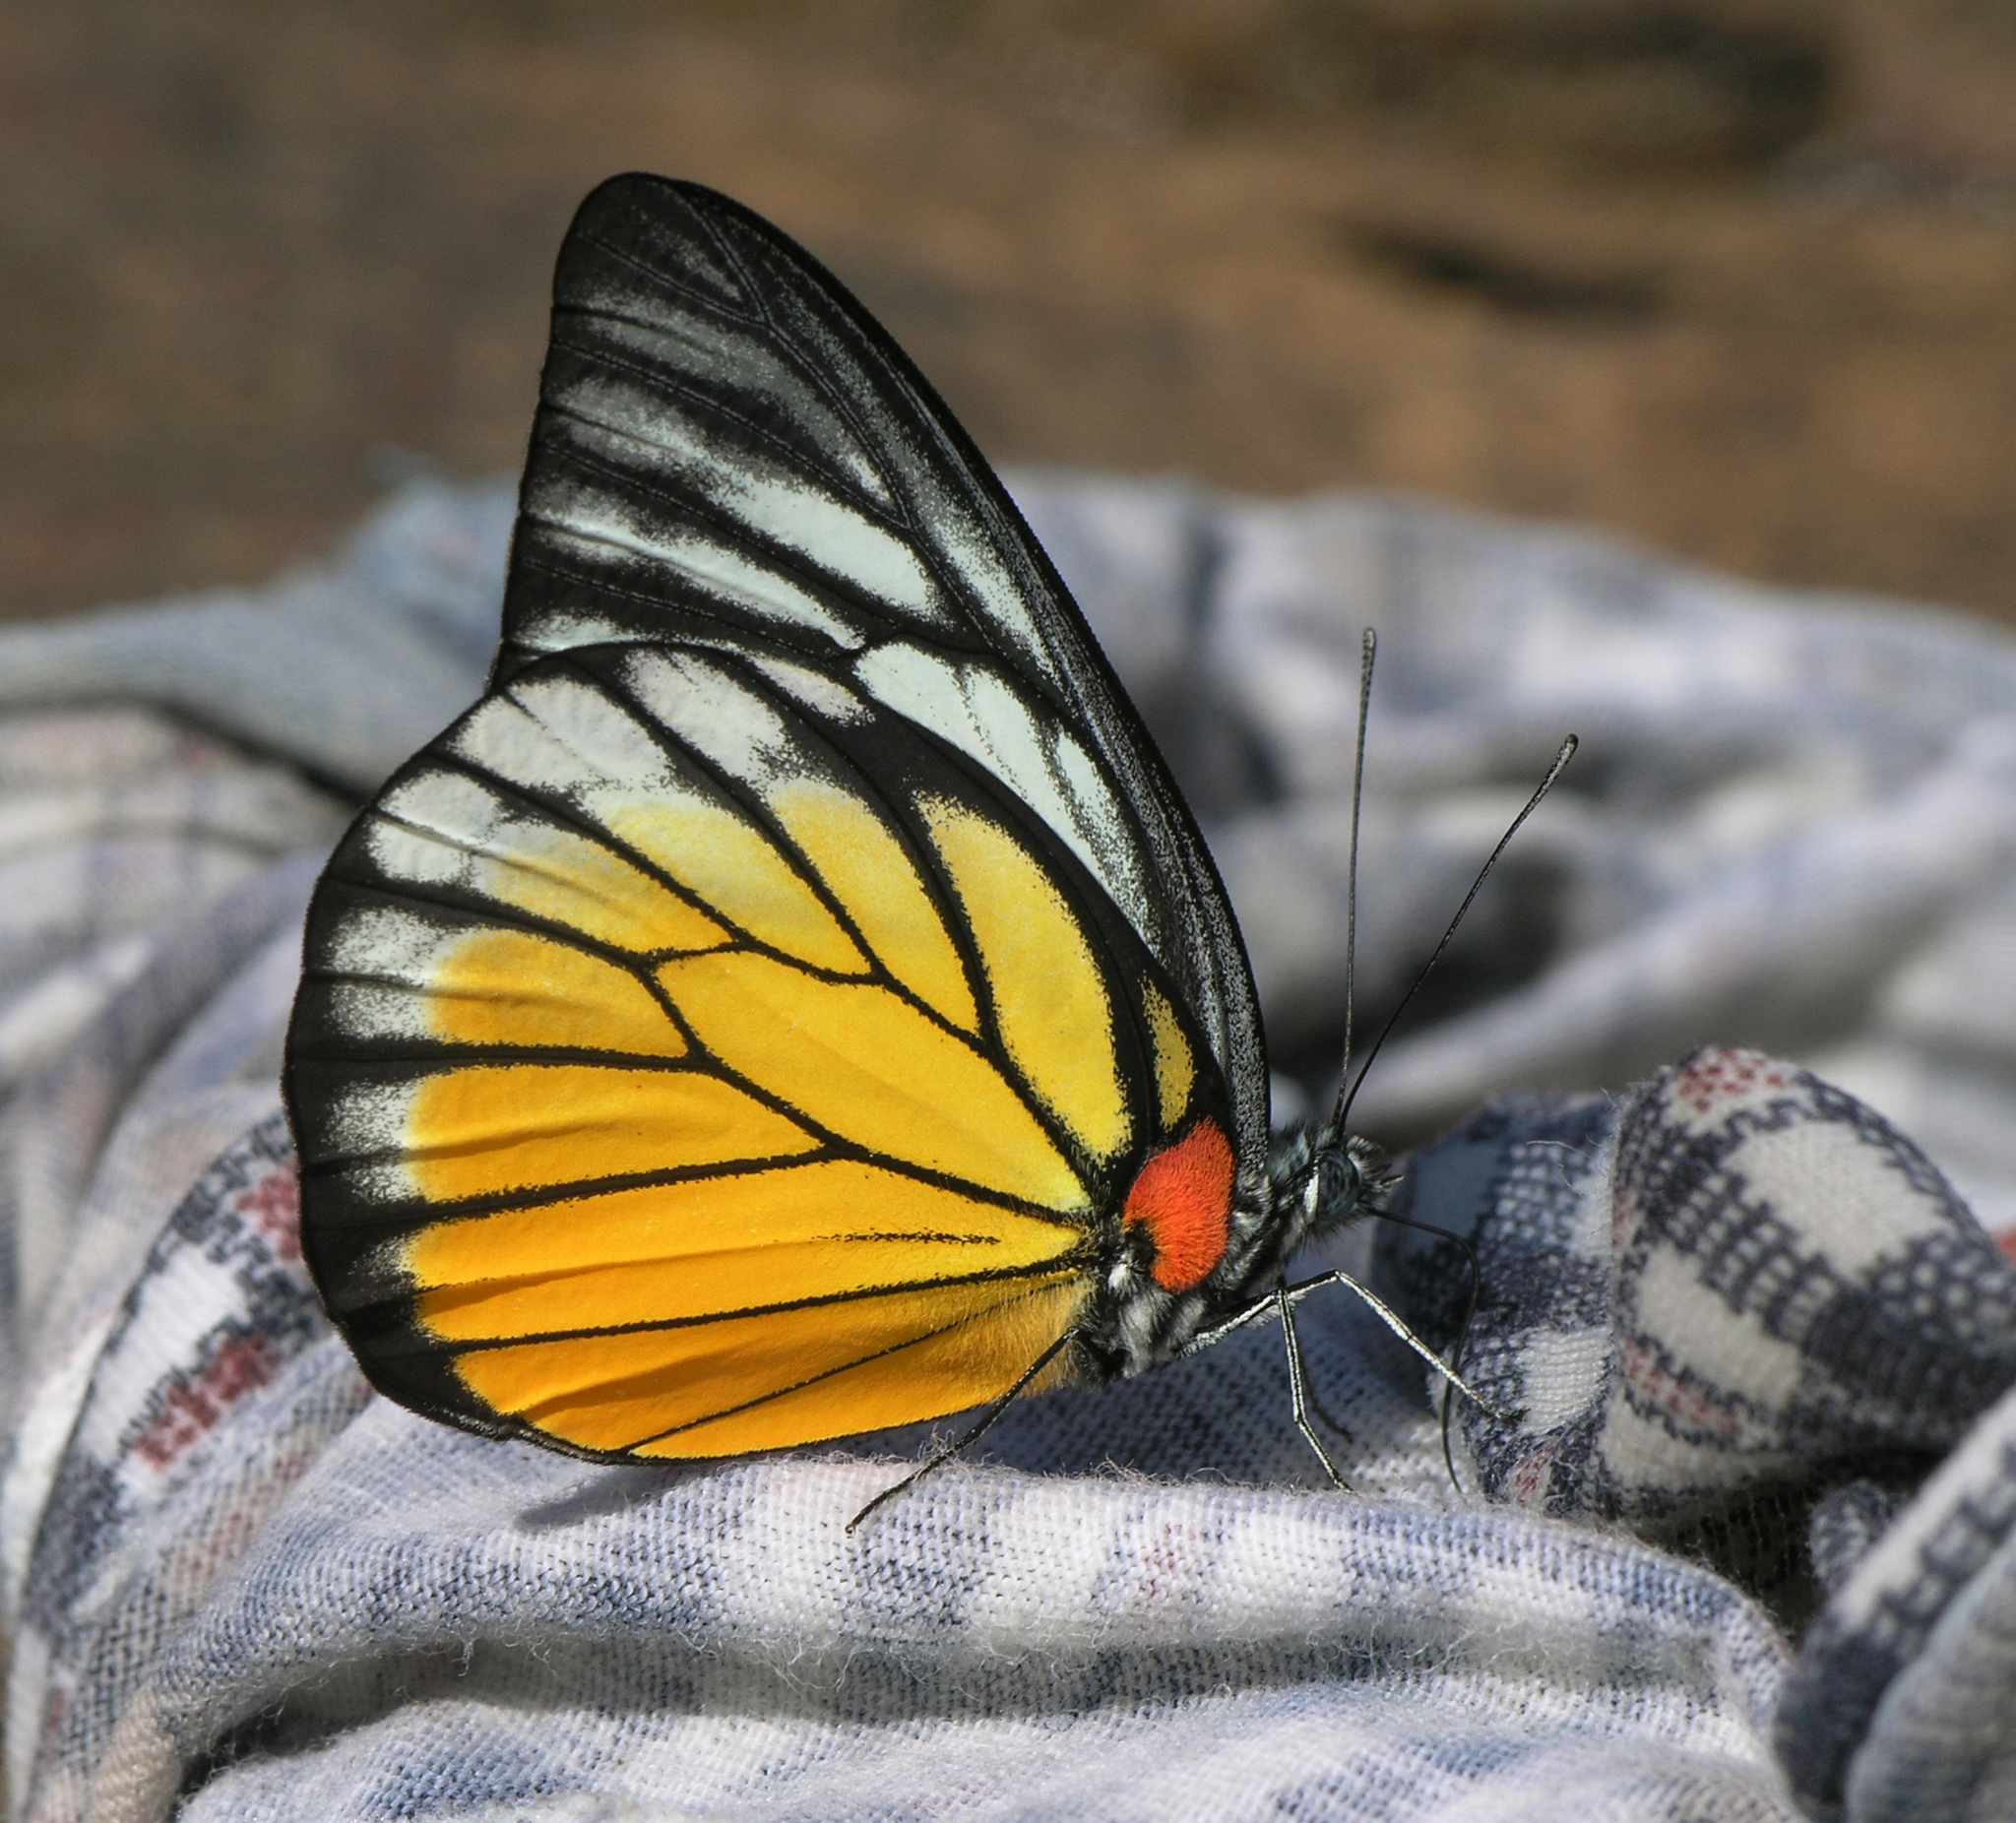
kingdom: Animalia
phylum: Arthropoda
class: Insecta
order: Lepidoptera
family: Pieridae
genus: Prioneris
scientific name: Prioneris
